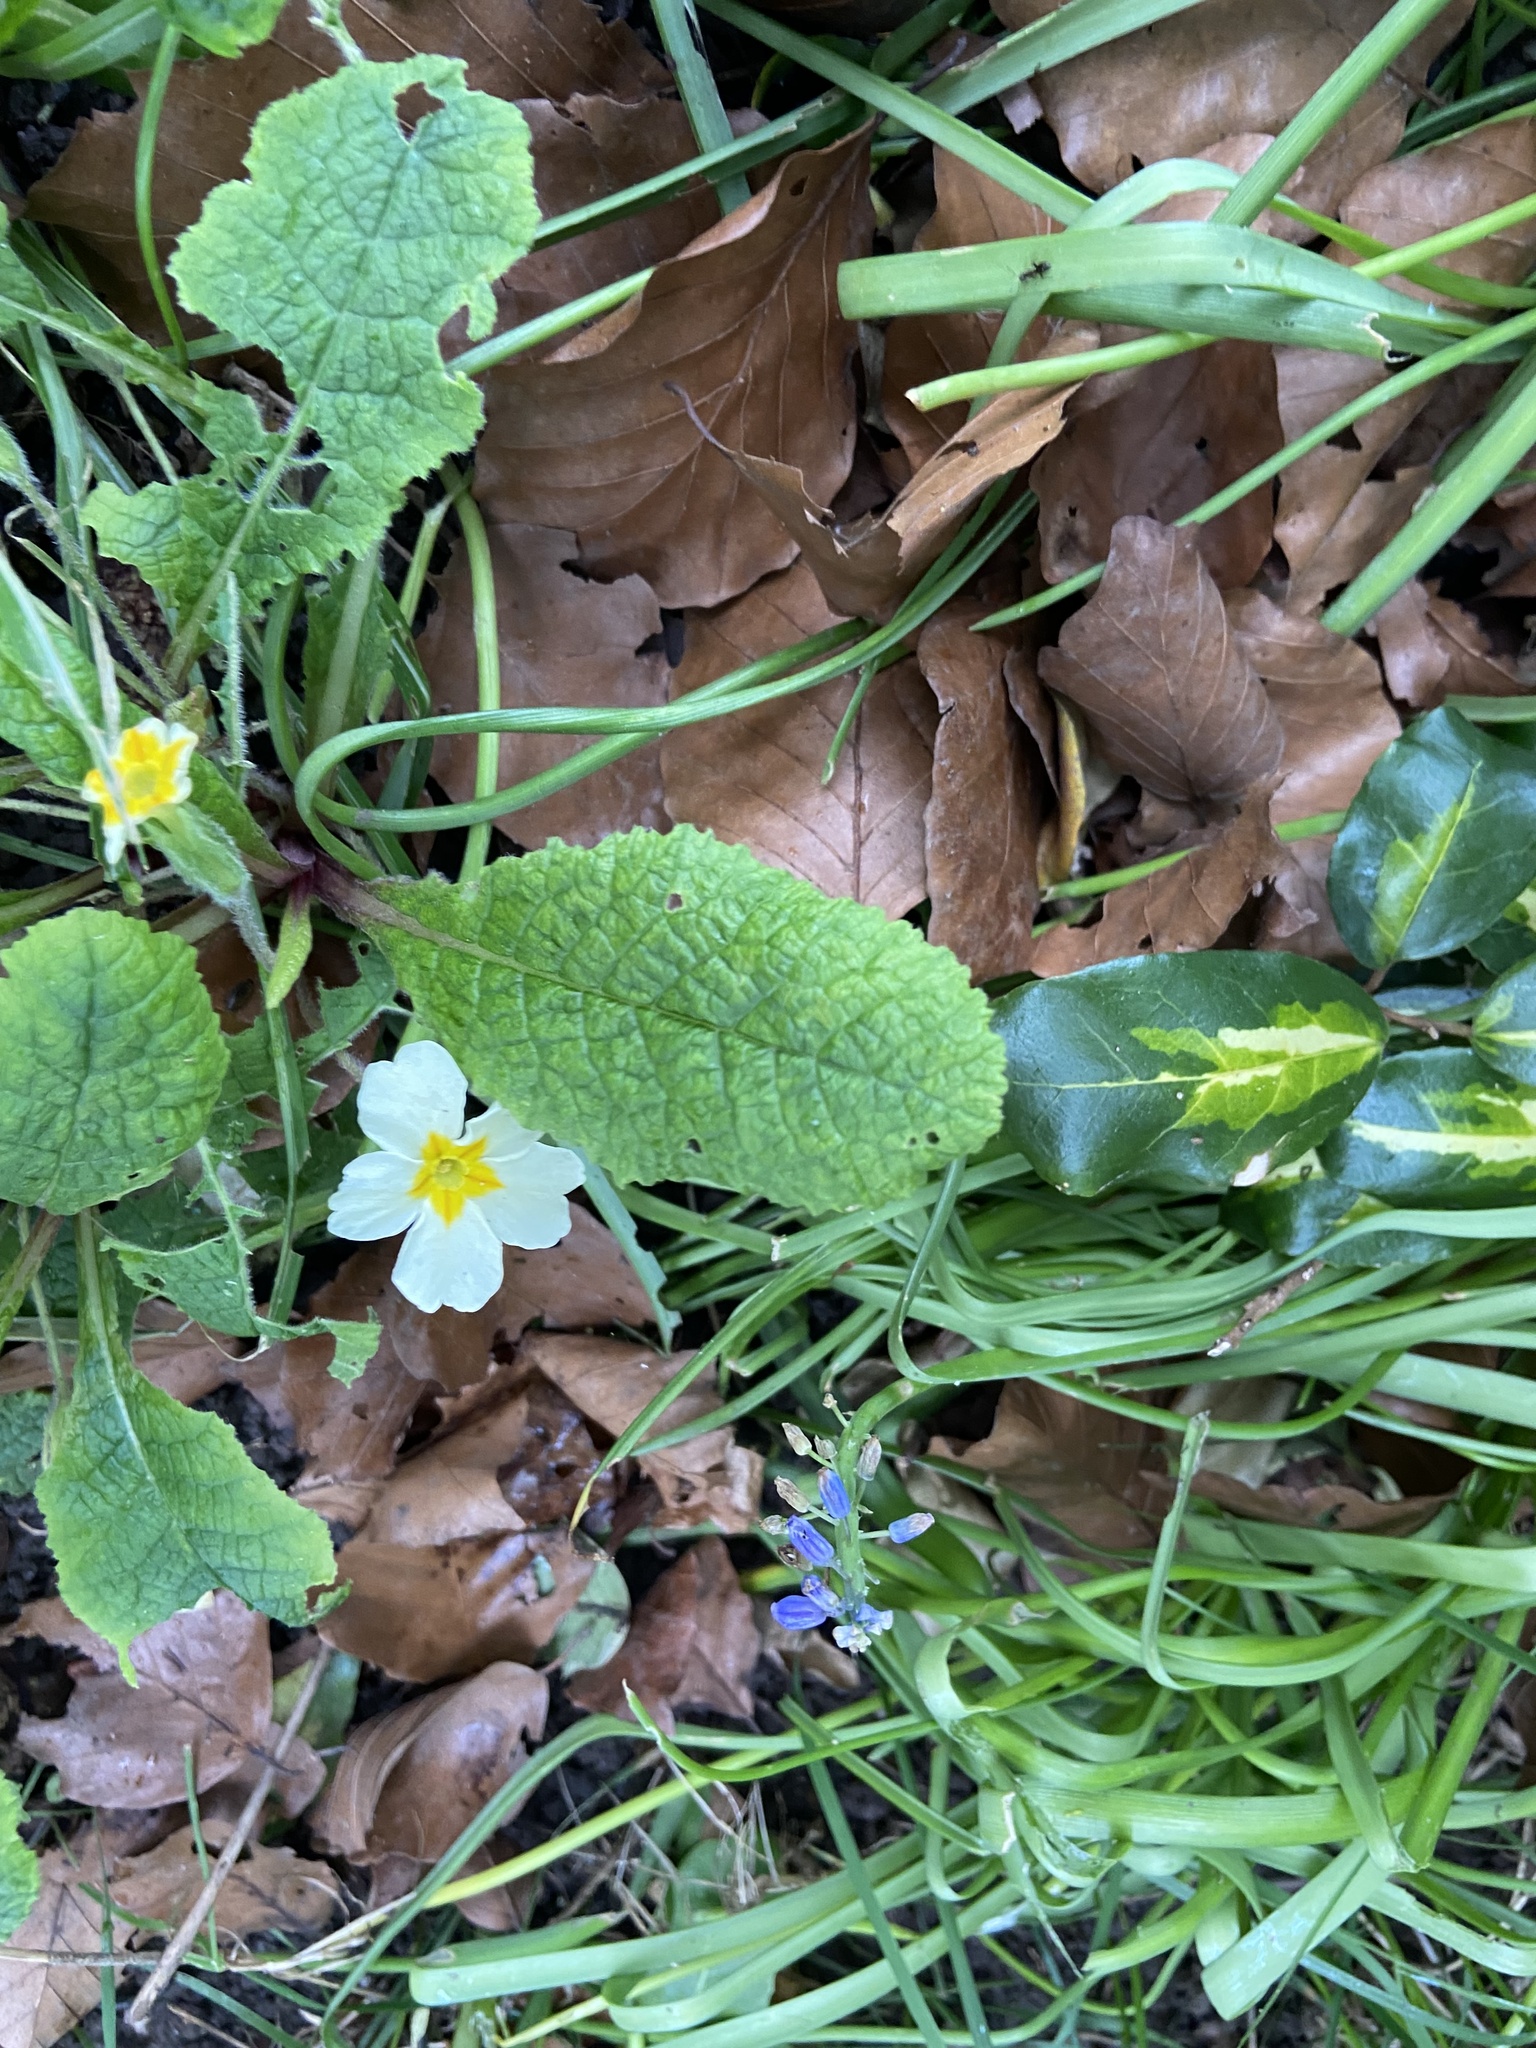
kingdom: Plantae
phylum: Tracheophyta
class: Magnoliopsida
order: Ericales
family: Primulaceae
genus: Primula
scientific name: Primula vulgaris
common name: Primrose
